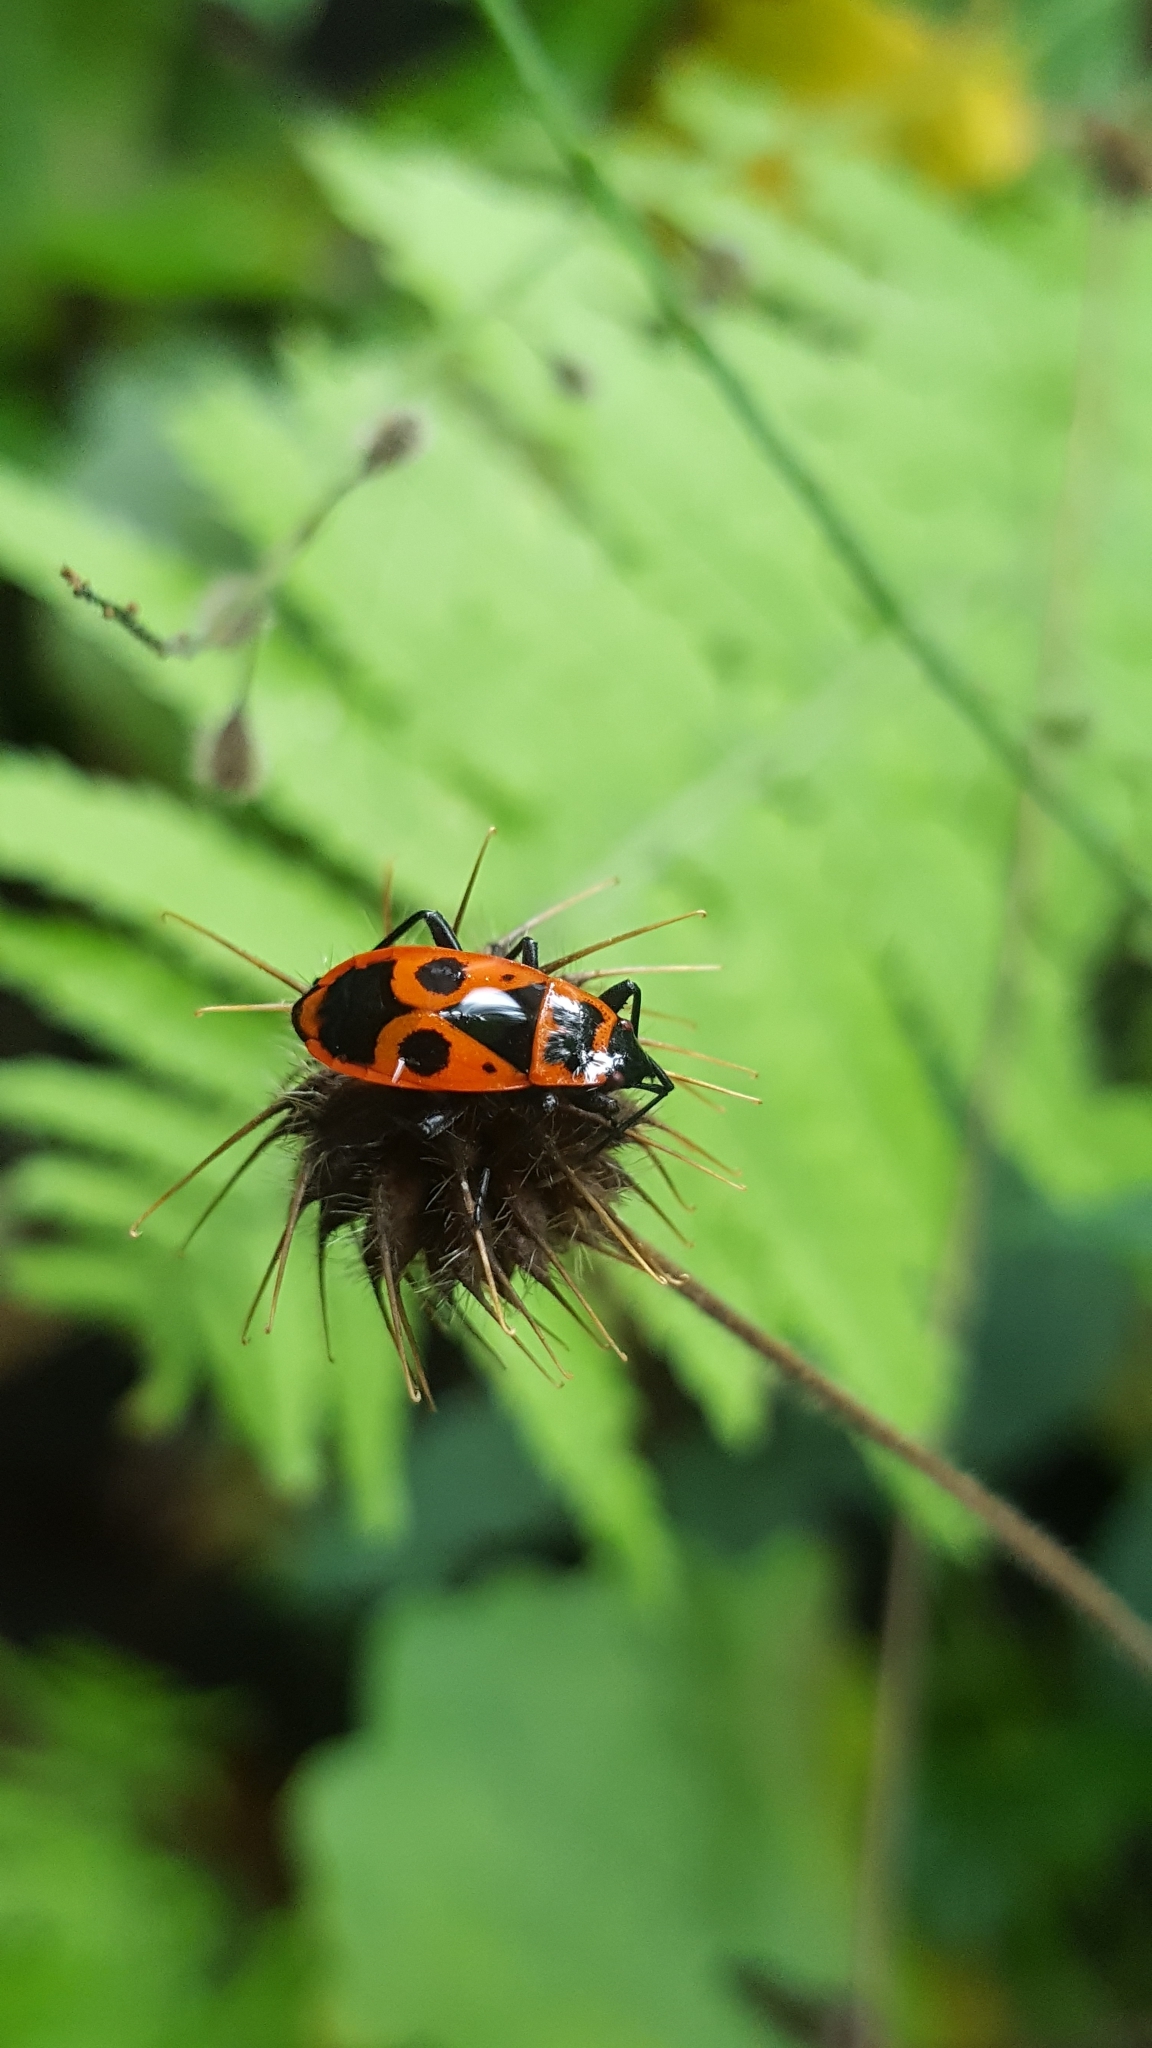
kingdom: Animalia
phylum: Arthropoda
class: Insecta
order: Hemiptera
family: Pyrrhocoridae
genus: Pyrrhocoris
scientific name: Pyrrhocoris apterus
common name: Firebug
